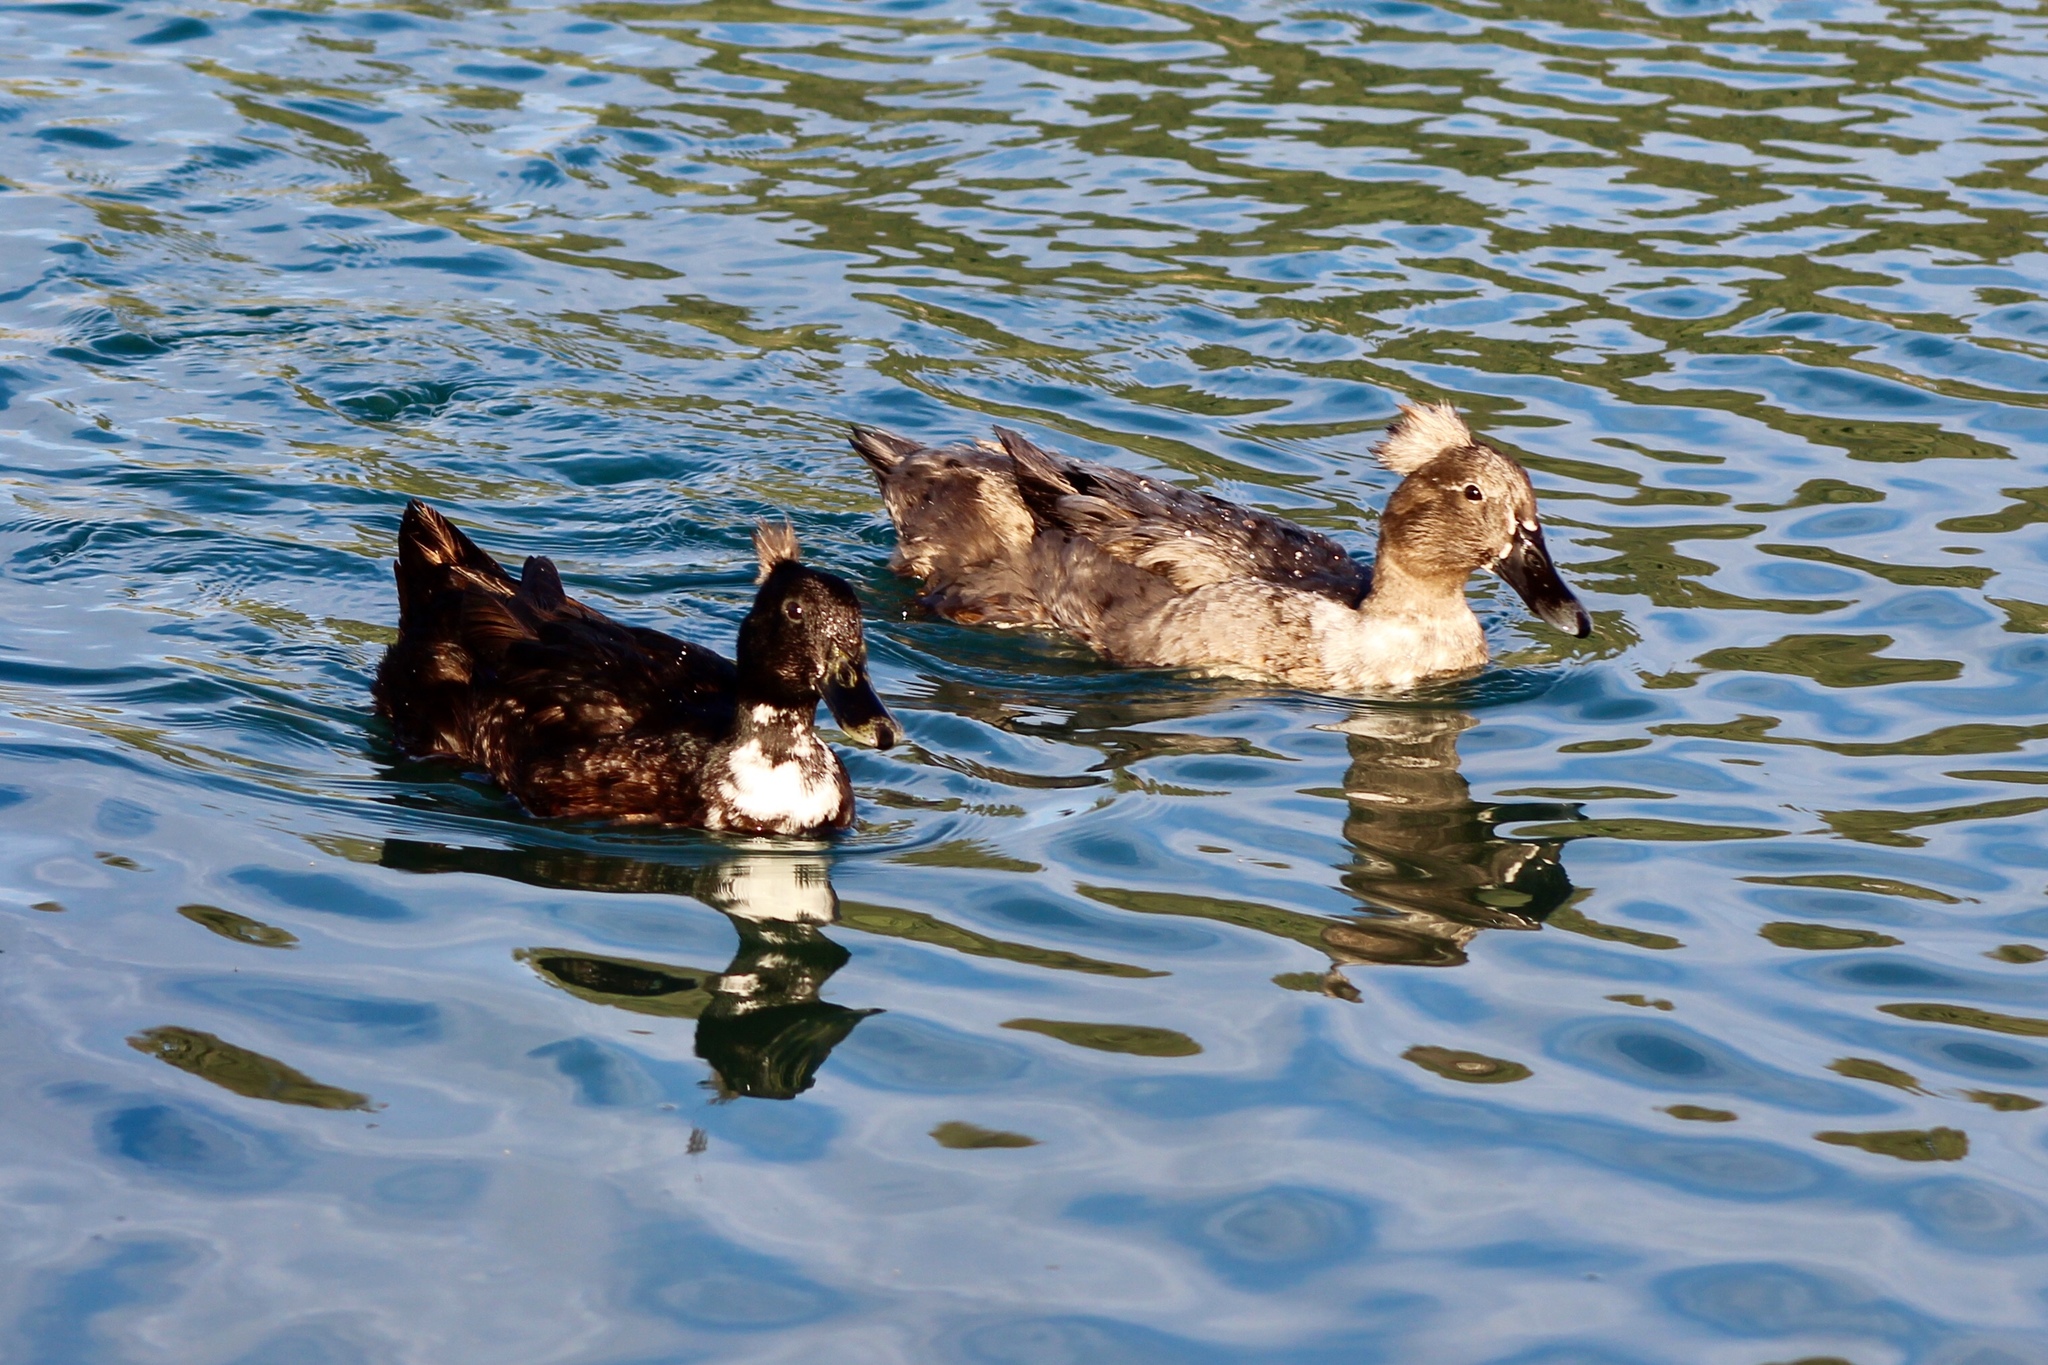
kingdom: Animalia
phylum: Chordata
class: Aves
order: Anseriformes
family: Anatidae
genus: Anas
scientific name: Anas platyrhynchos
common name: Mallard
